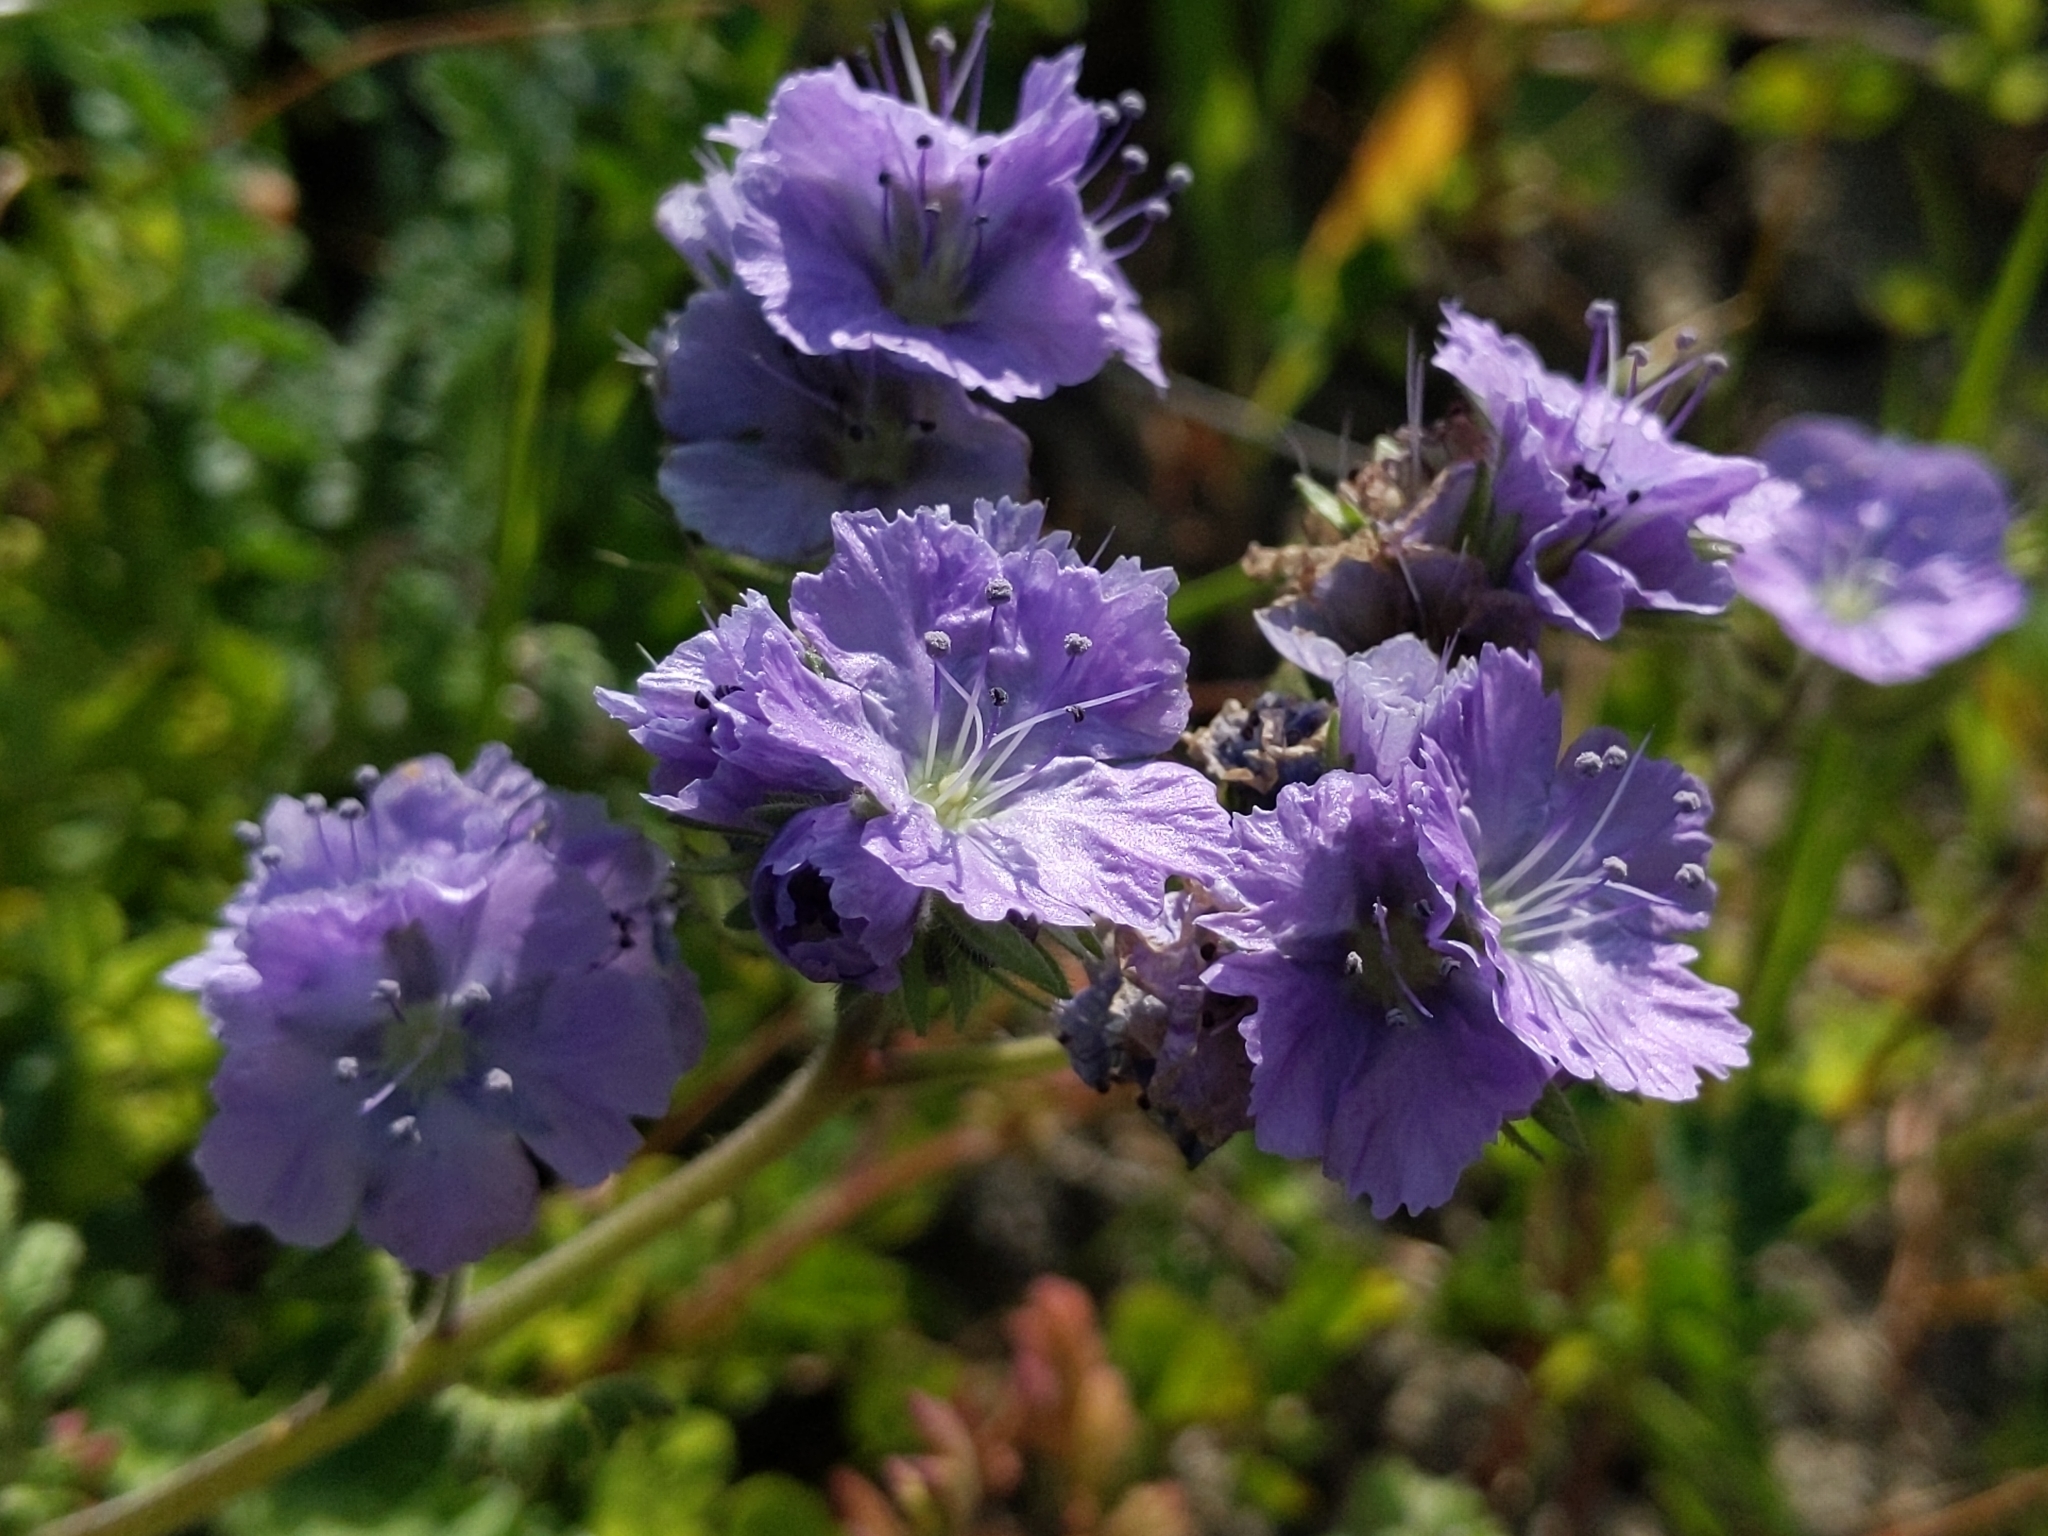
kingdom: Plantae
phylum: Tracheophyta
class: Magnoliopsida
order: Boraginales
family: Hydrophyllaceae
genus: Phacelia
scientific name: Phacelia ciliata
